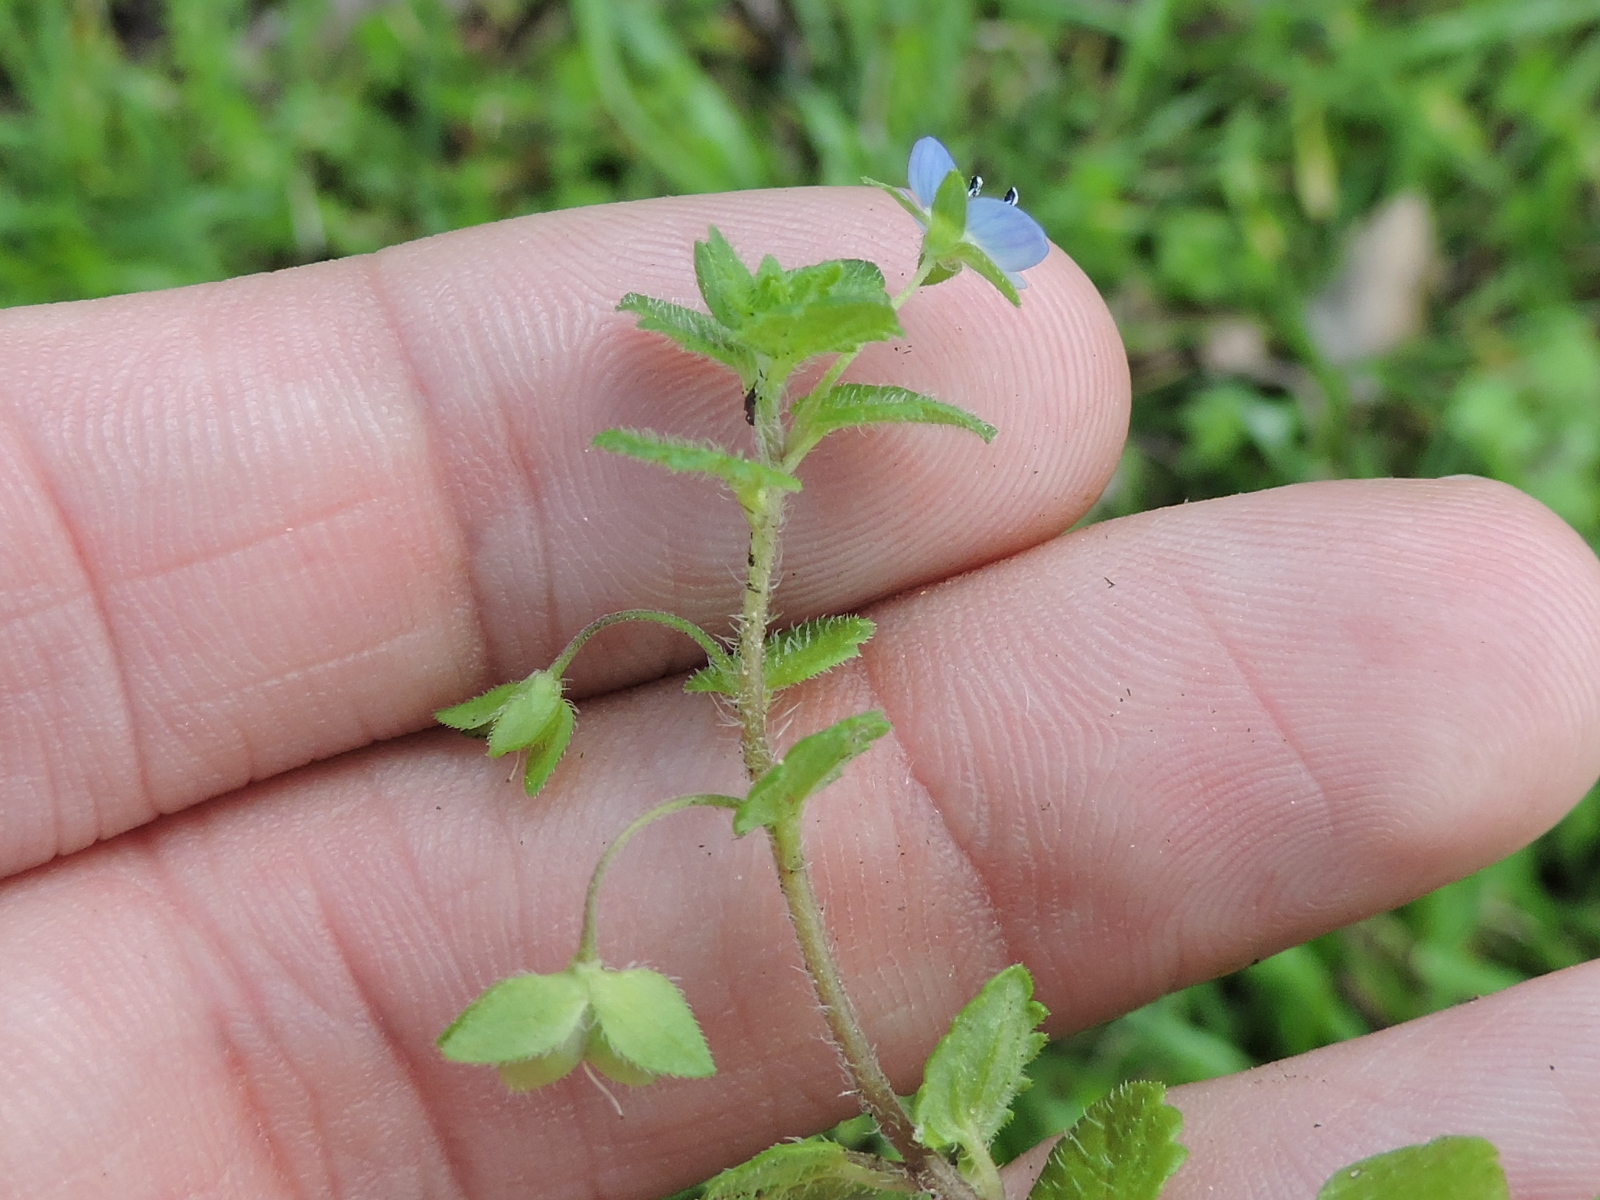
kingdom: Plantae
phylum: Tracheophyta
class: Magnoliopsida
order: Lamiales
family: Plantaginaceae
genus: Veronica
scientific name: Veronica persica
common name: Common field-speedwell
